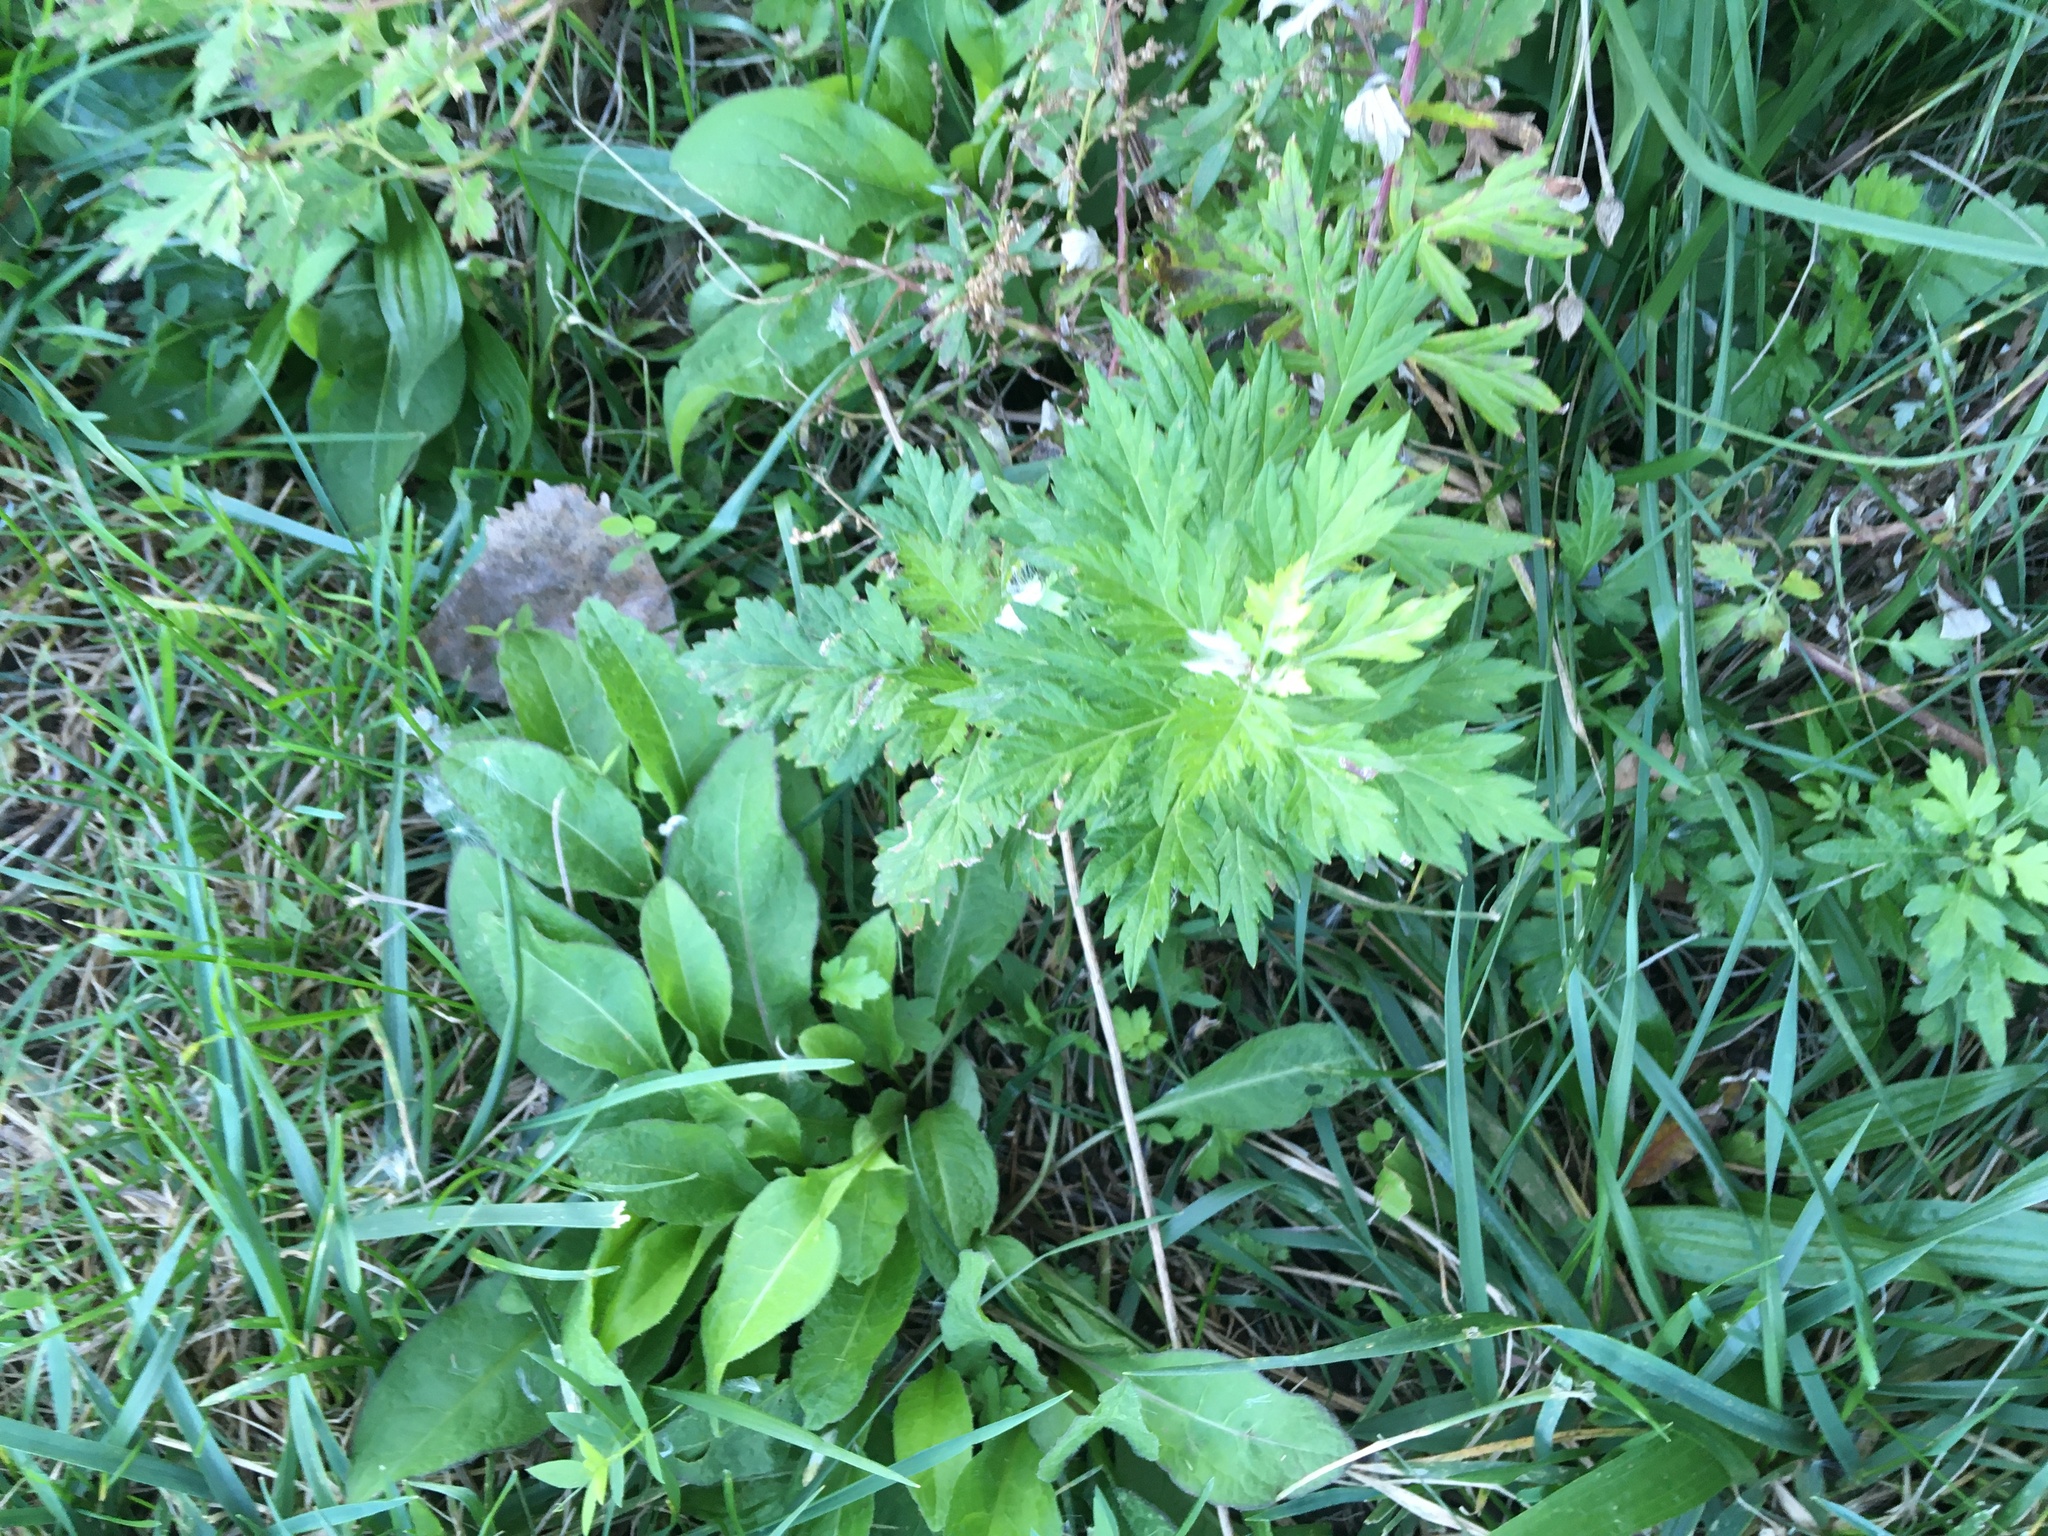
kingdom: Plantae
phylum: Tracheophyta
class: Magnoliopsida
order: Asterales
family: Asteraceae
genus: Artemisia
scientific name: Artemisia vulgaris
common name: Mugwort
